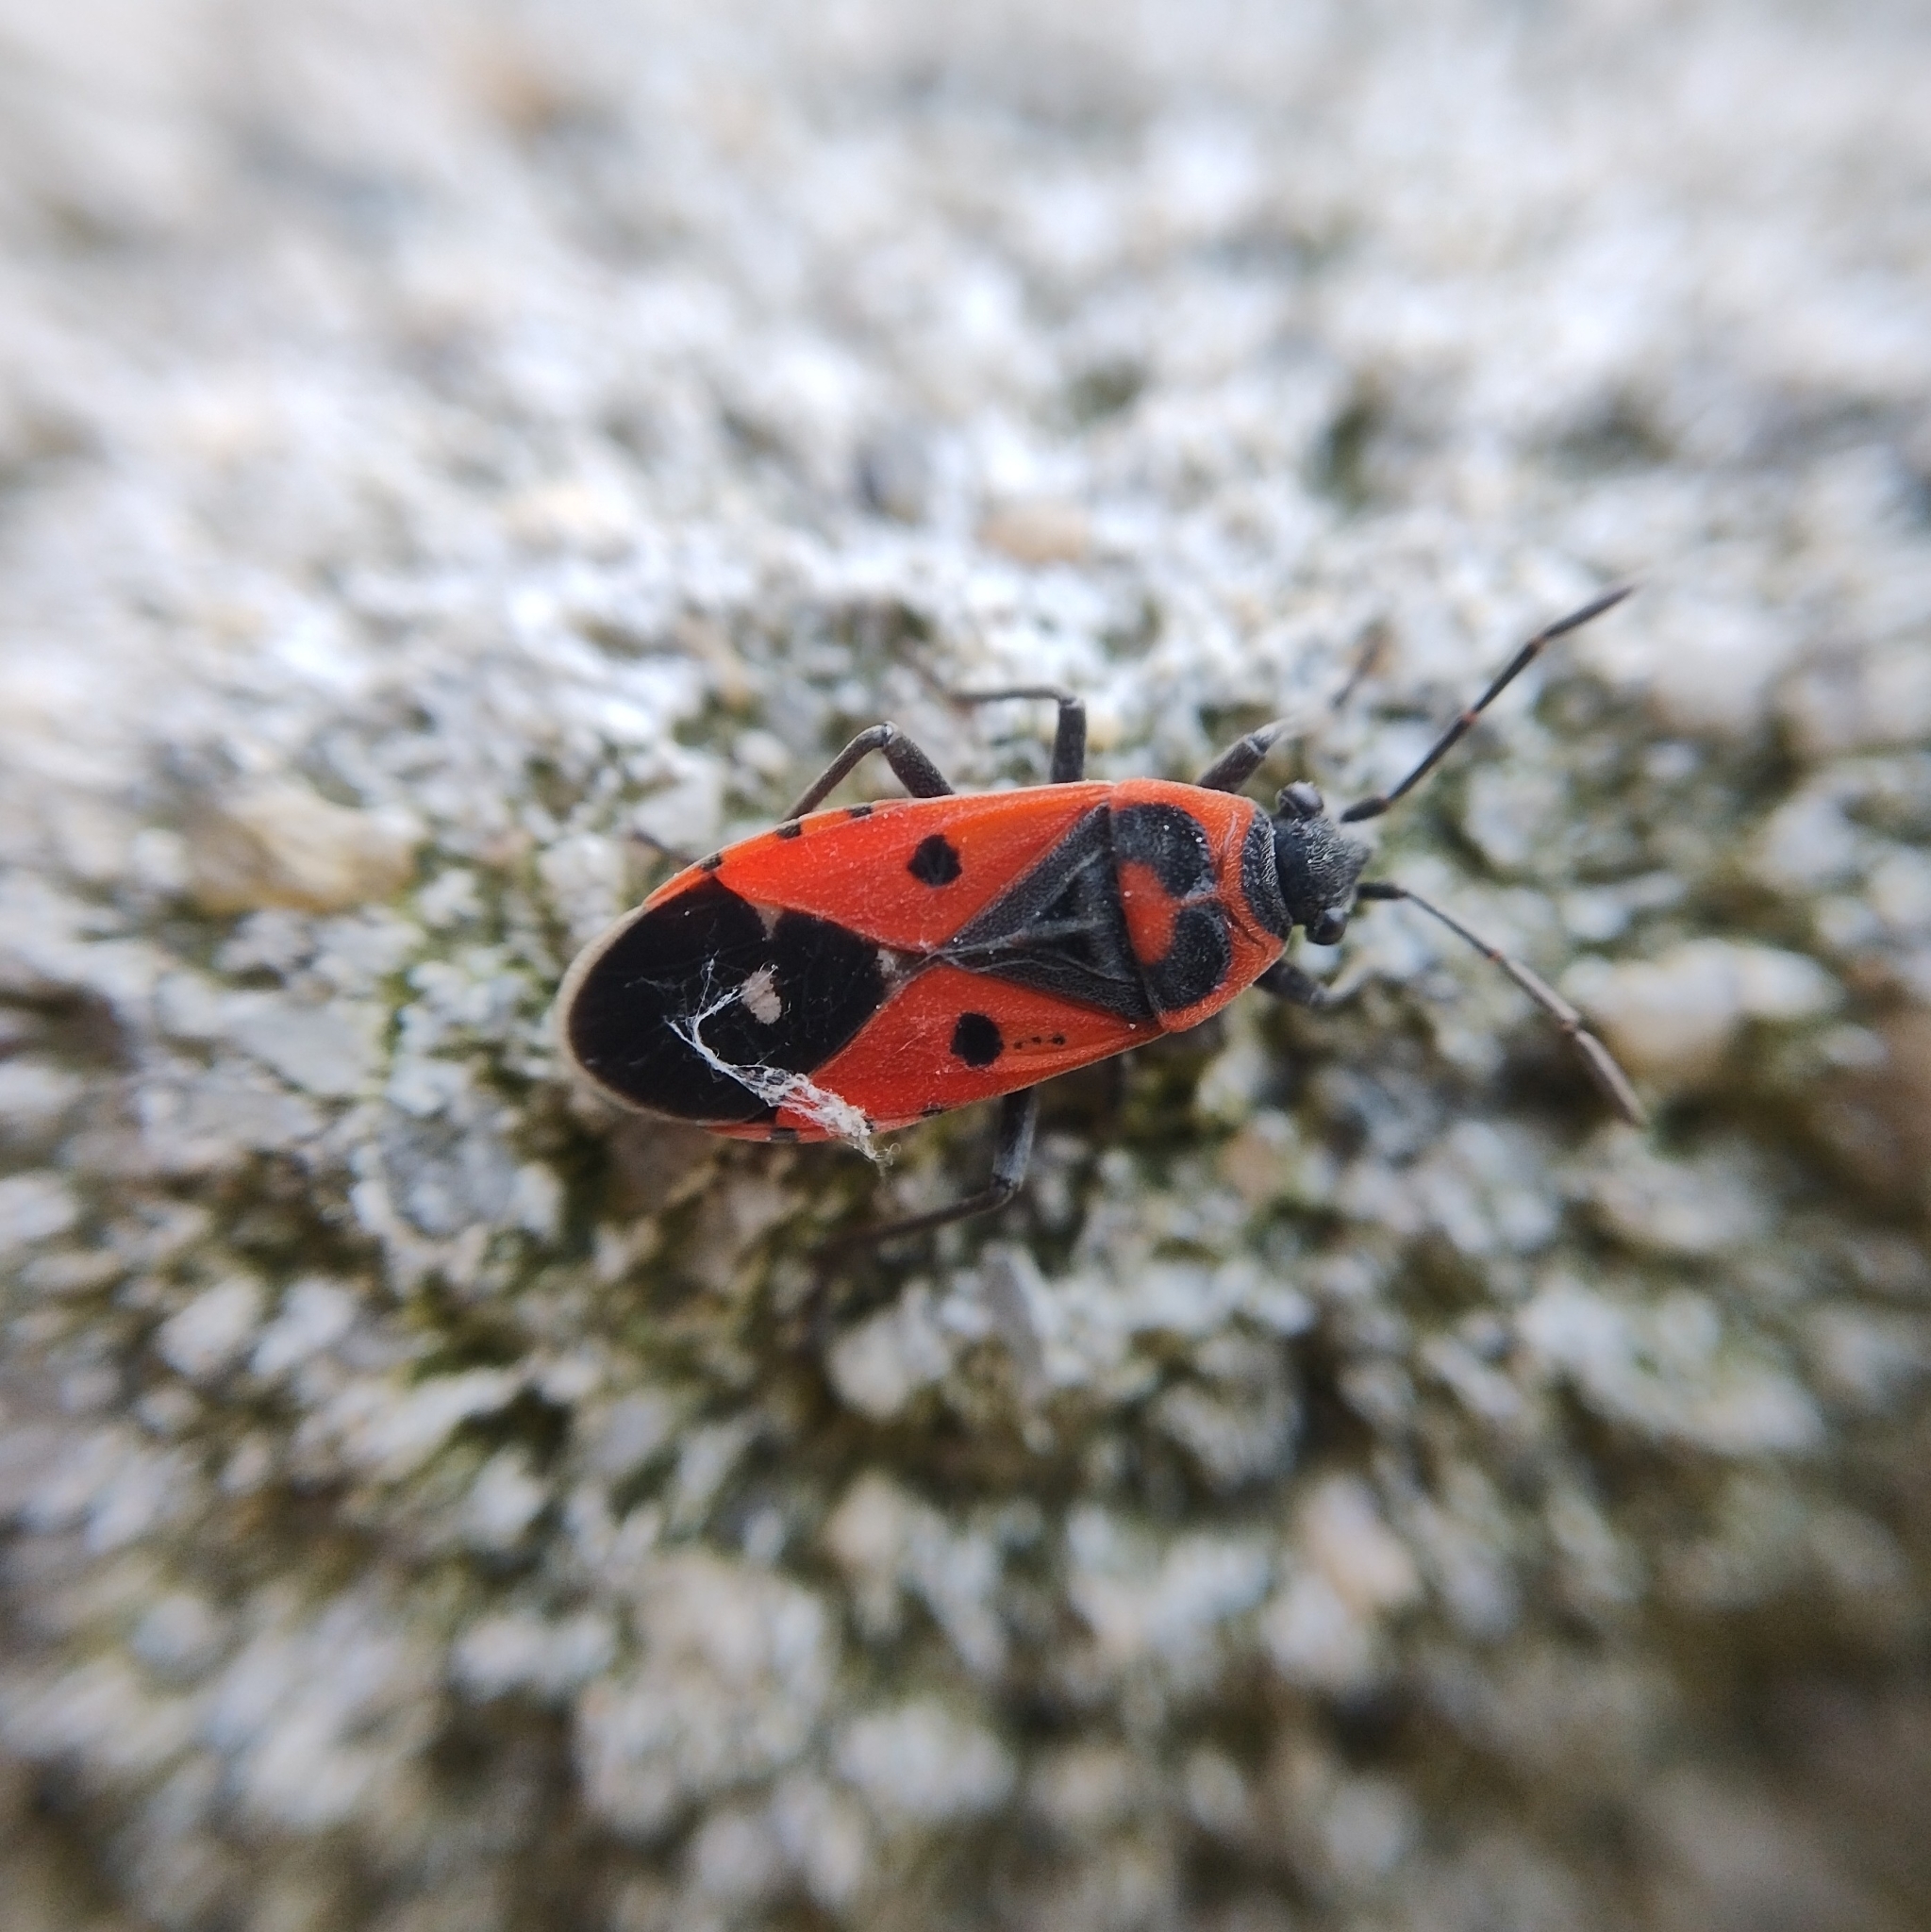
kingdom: Animalia
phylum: Arthropoda
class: Insecta
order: Hemiptera
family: Lygaeidae
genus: Melanocoryphus
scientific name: Melanocoryphus albomaculatus
